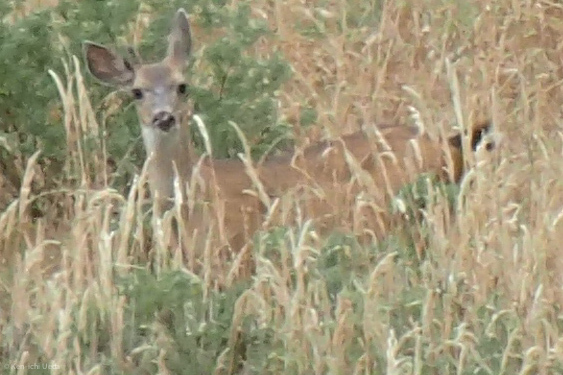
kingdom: Animalia
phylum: Chordata
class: Mammalia
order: Artiodactyla
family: Cervidae
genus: Odocoileus
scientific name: Odocoileus hemionus
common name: Mule deer
